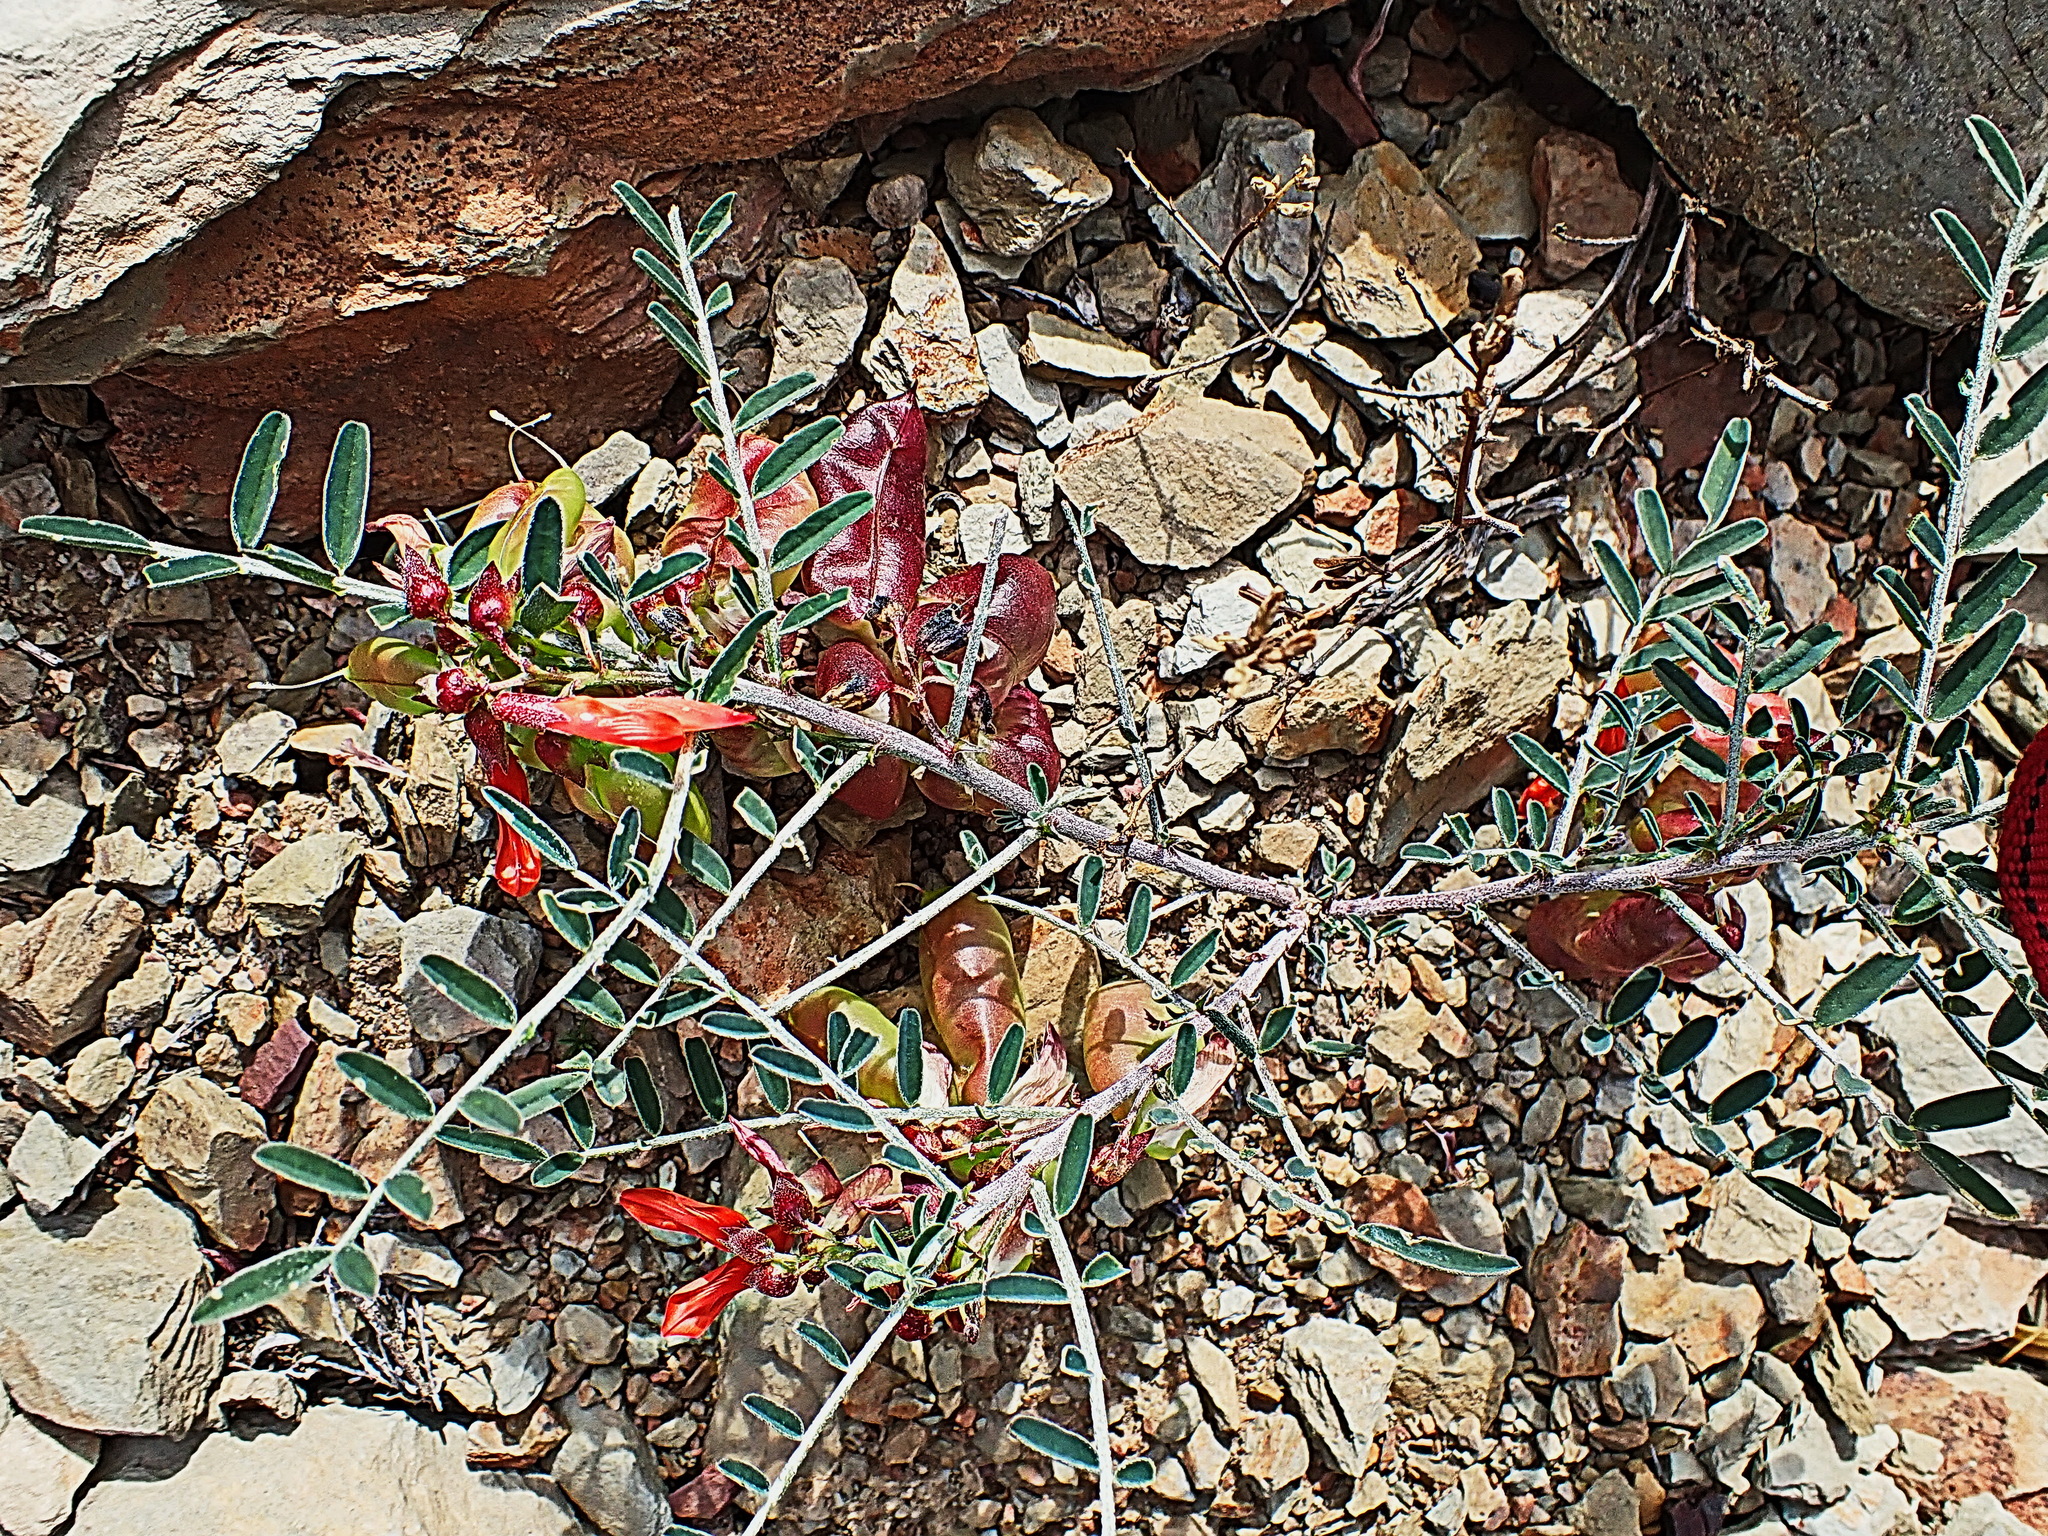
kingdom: Plantae
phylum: Tracheophyta
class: Magnoliopsida
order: Fabales
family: Fabaceae
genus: Lessertia
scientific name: Lessertia frutescens
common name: Balloon-pea
